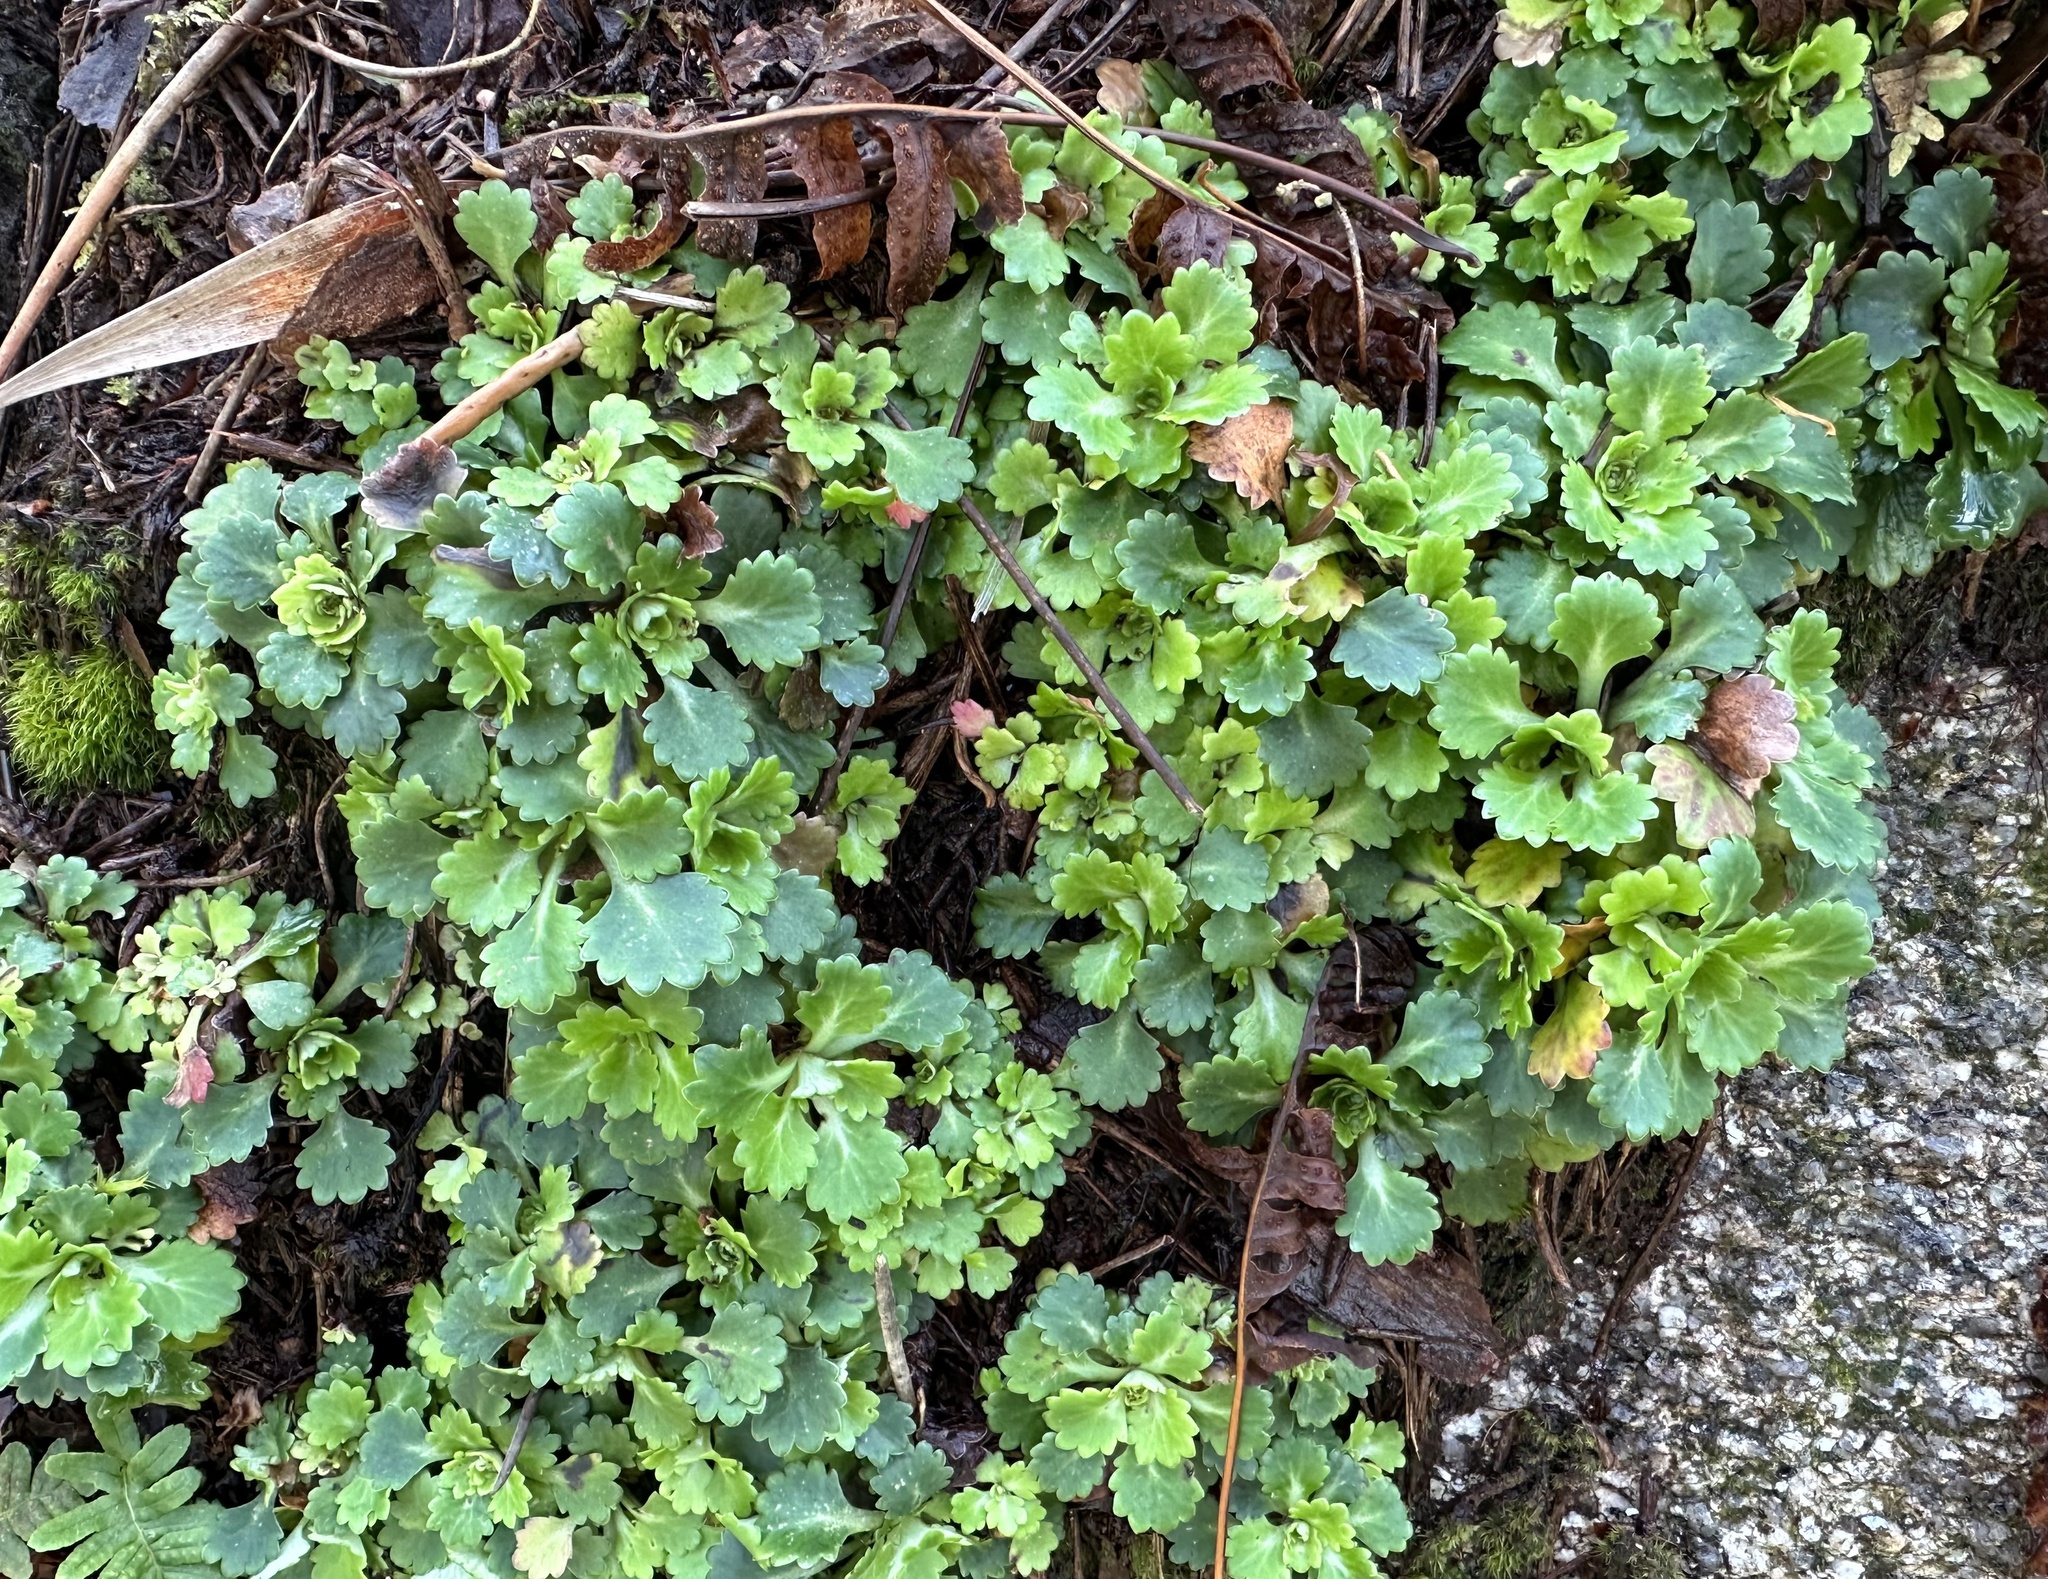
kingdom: Plantae
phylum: Tracheophyta
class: Magnoliopsida
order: Saxifragales
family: Saxifragaceae
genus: Saxifraga
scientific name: Saxifraga spathularis
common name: St patrick's-cabbage
